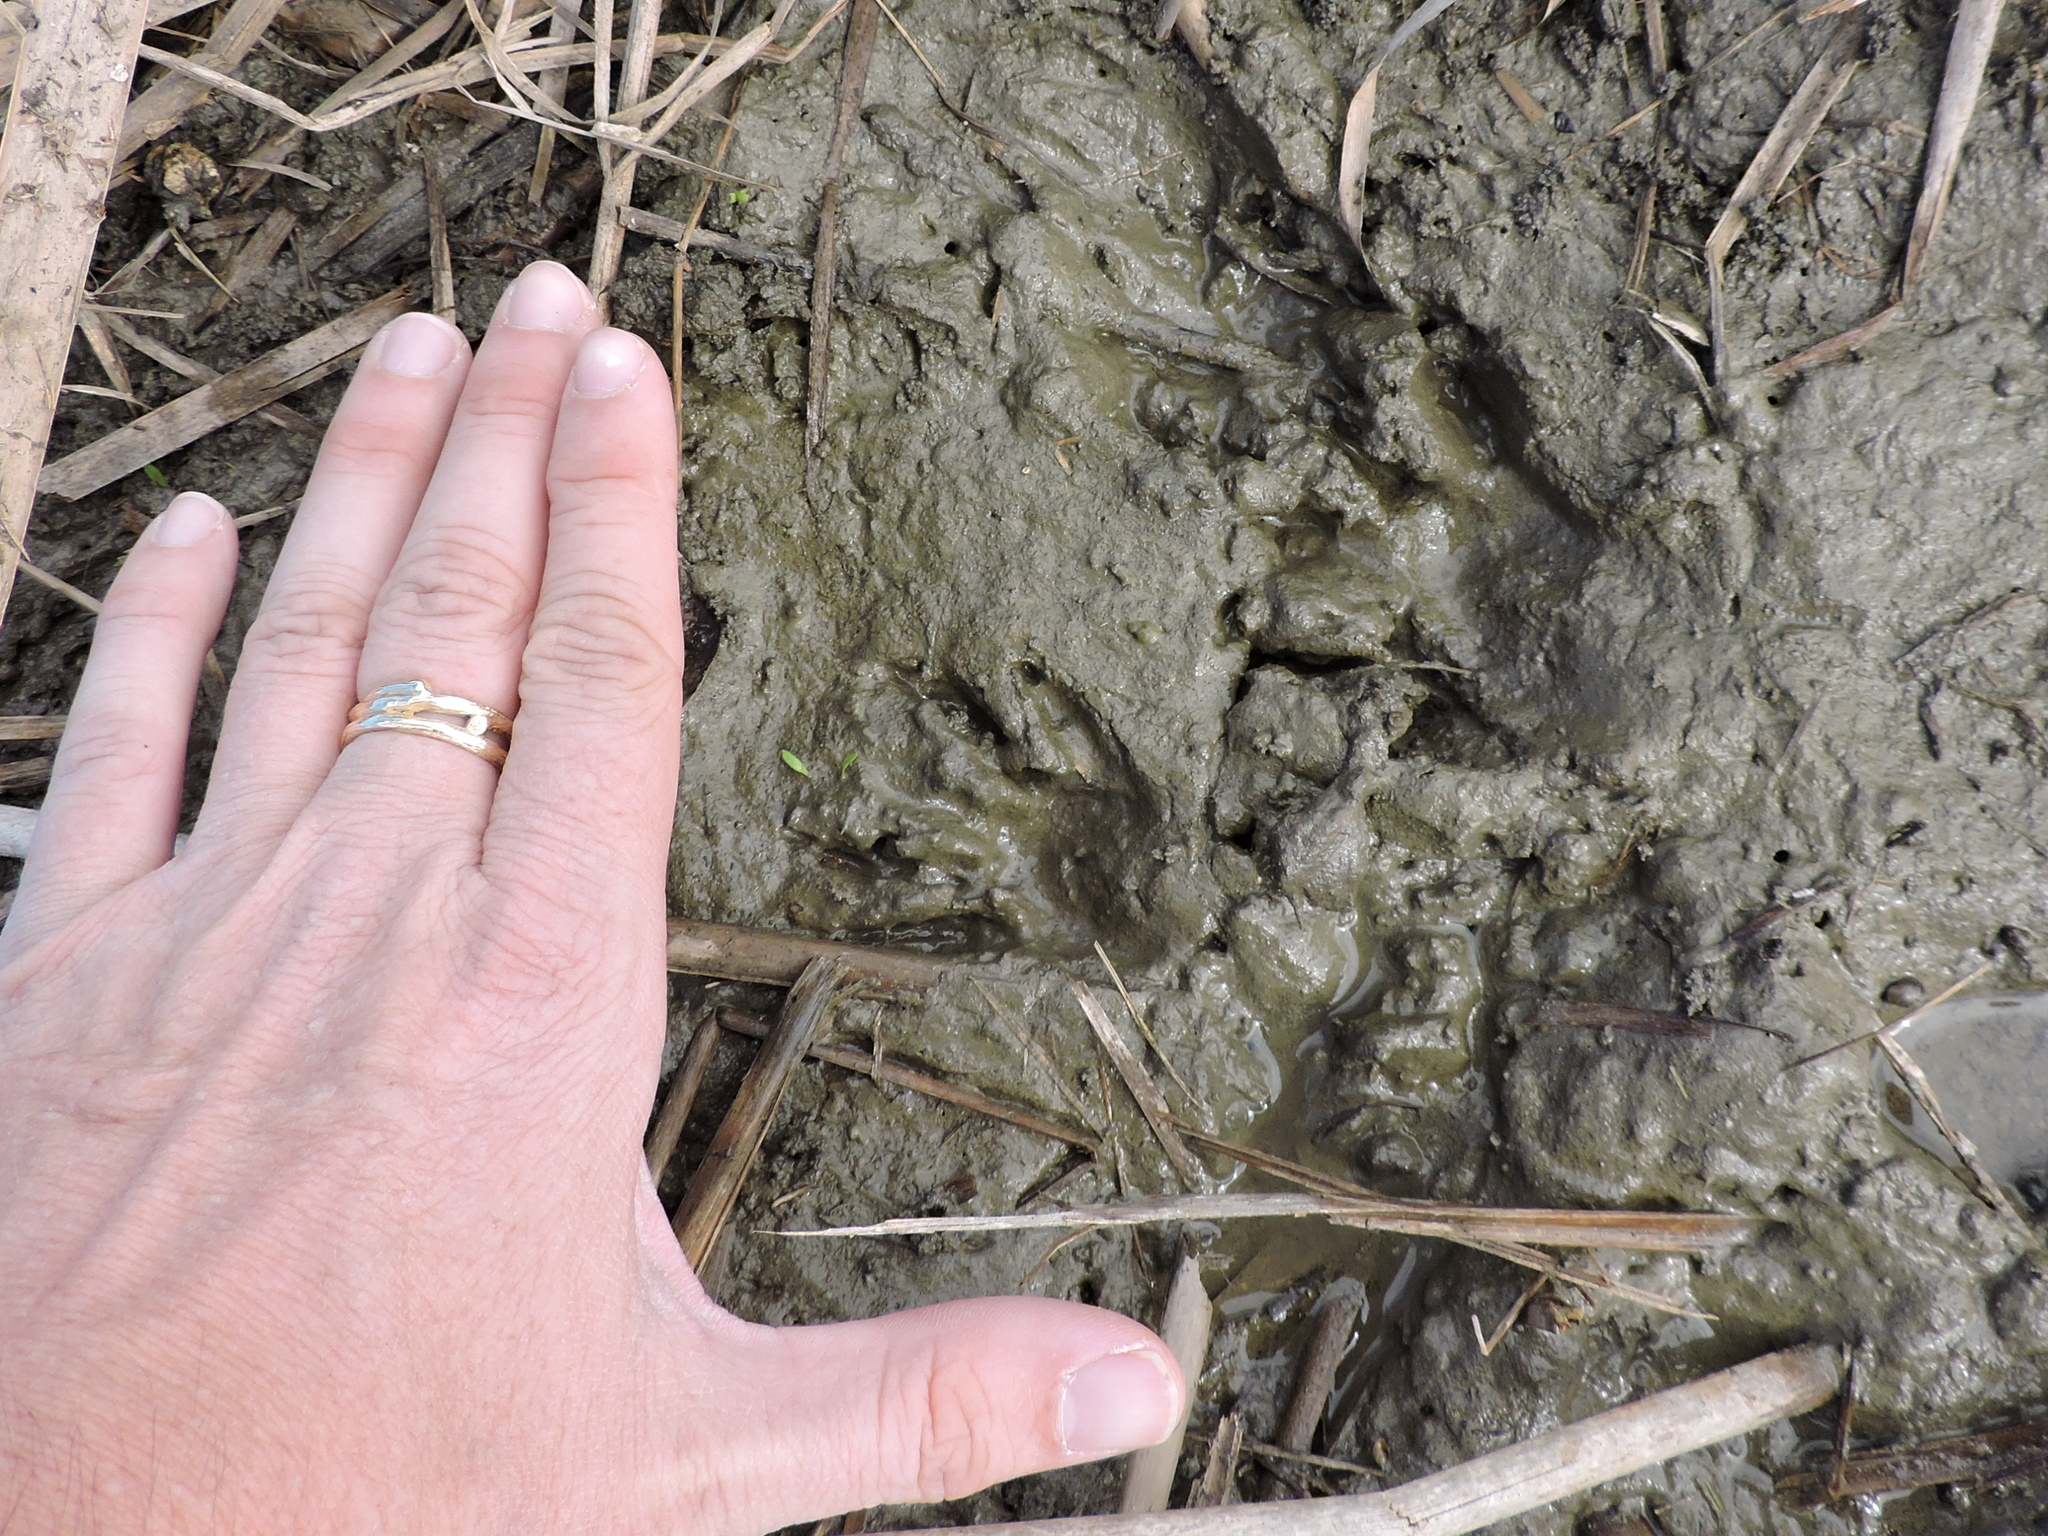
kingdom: Animalia
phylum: Chordata
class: Mammalia
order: Carnivora
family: Procyonidae
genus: Procyon
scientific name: Procyon lotor
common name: Raccoon
